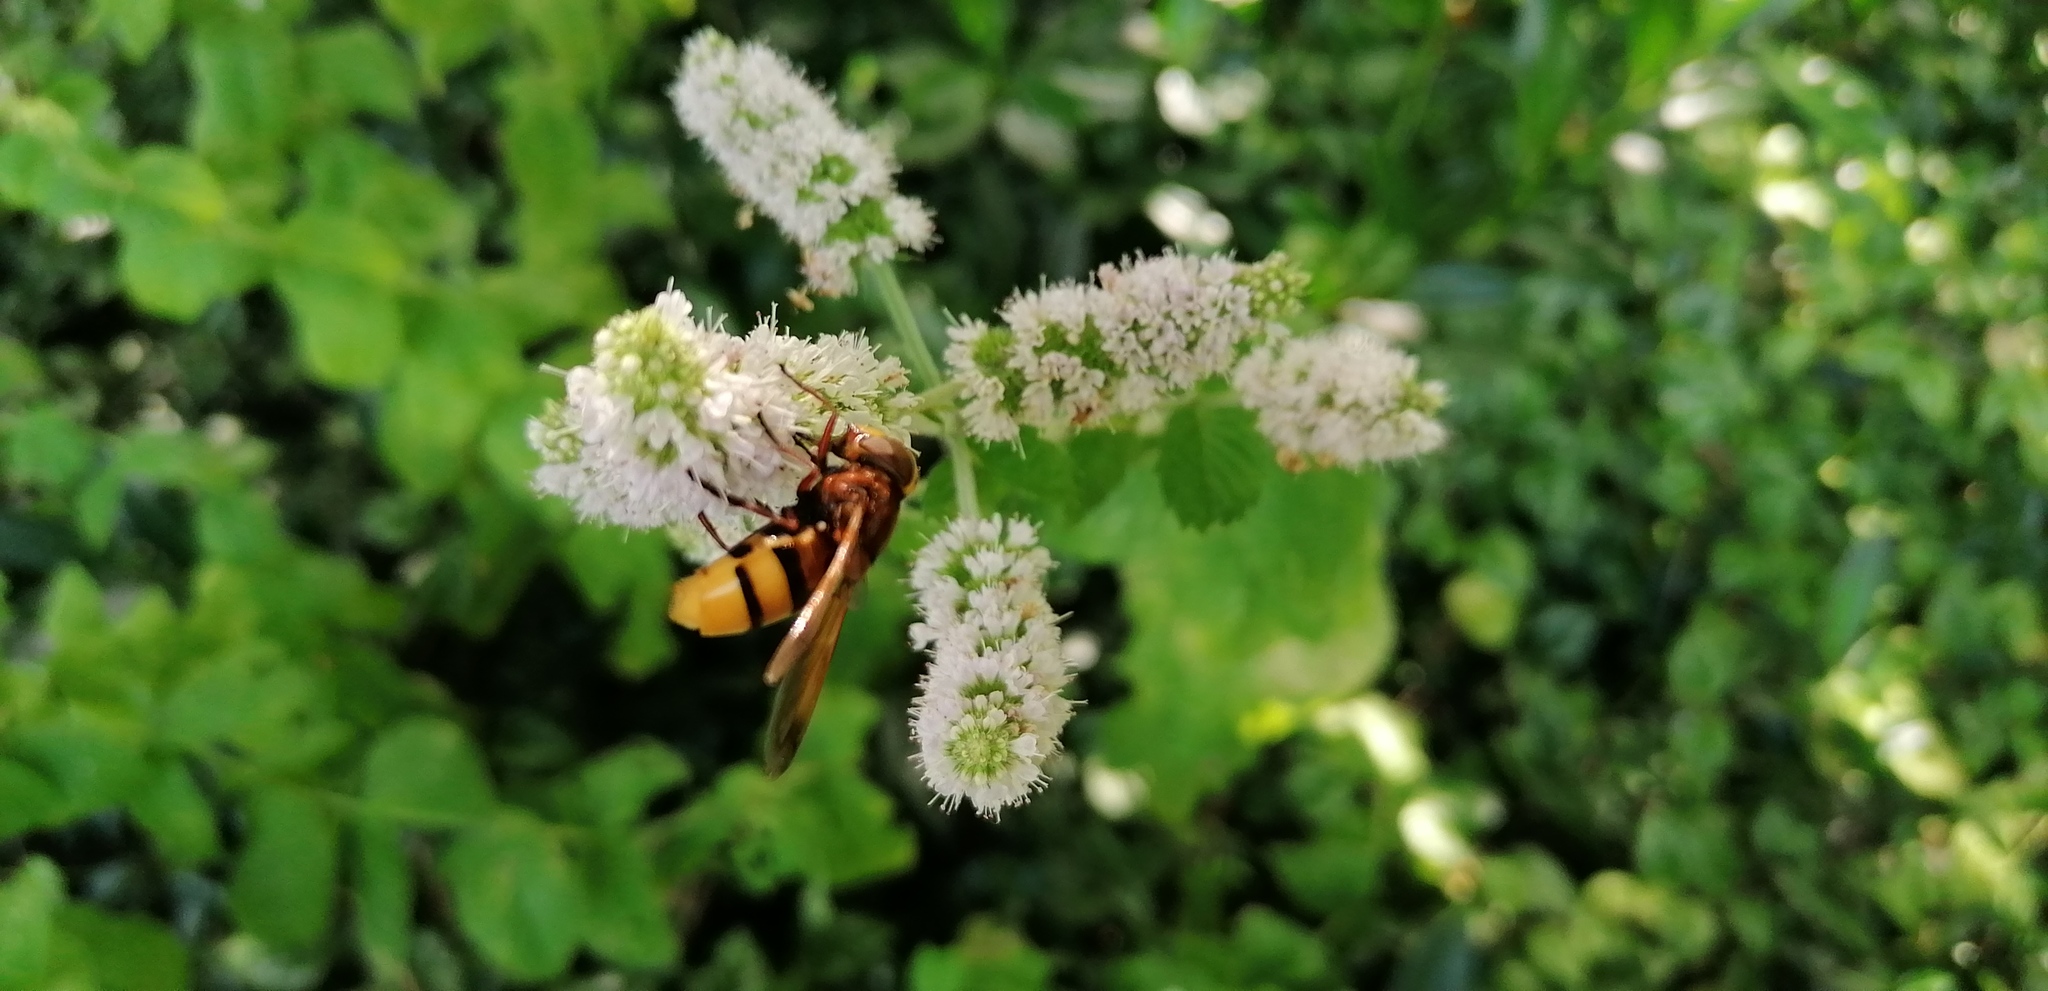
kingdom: Animalia
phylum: Arthropoda
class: Insecta
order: Diptera
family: Syrphidae
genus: Volucella
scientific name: Volucella zonaria
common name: Hornet hoverfly
